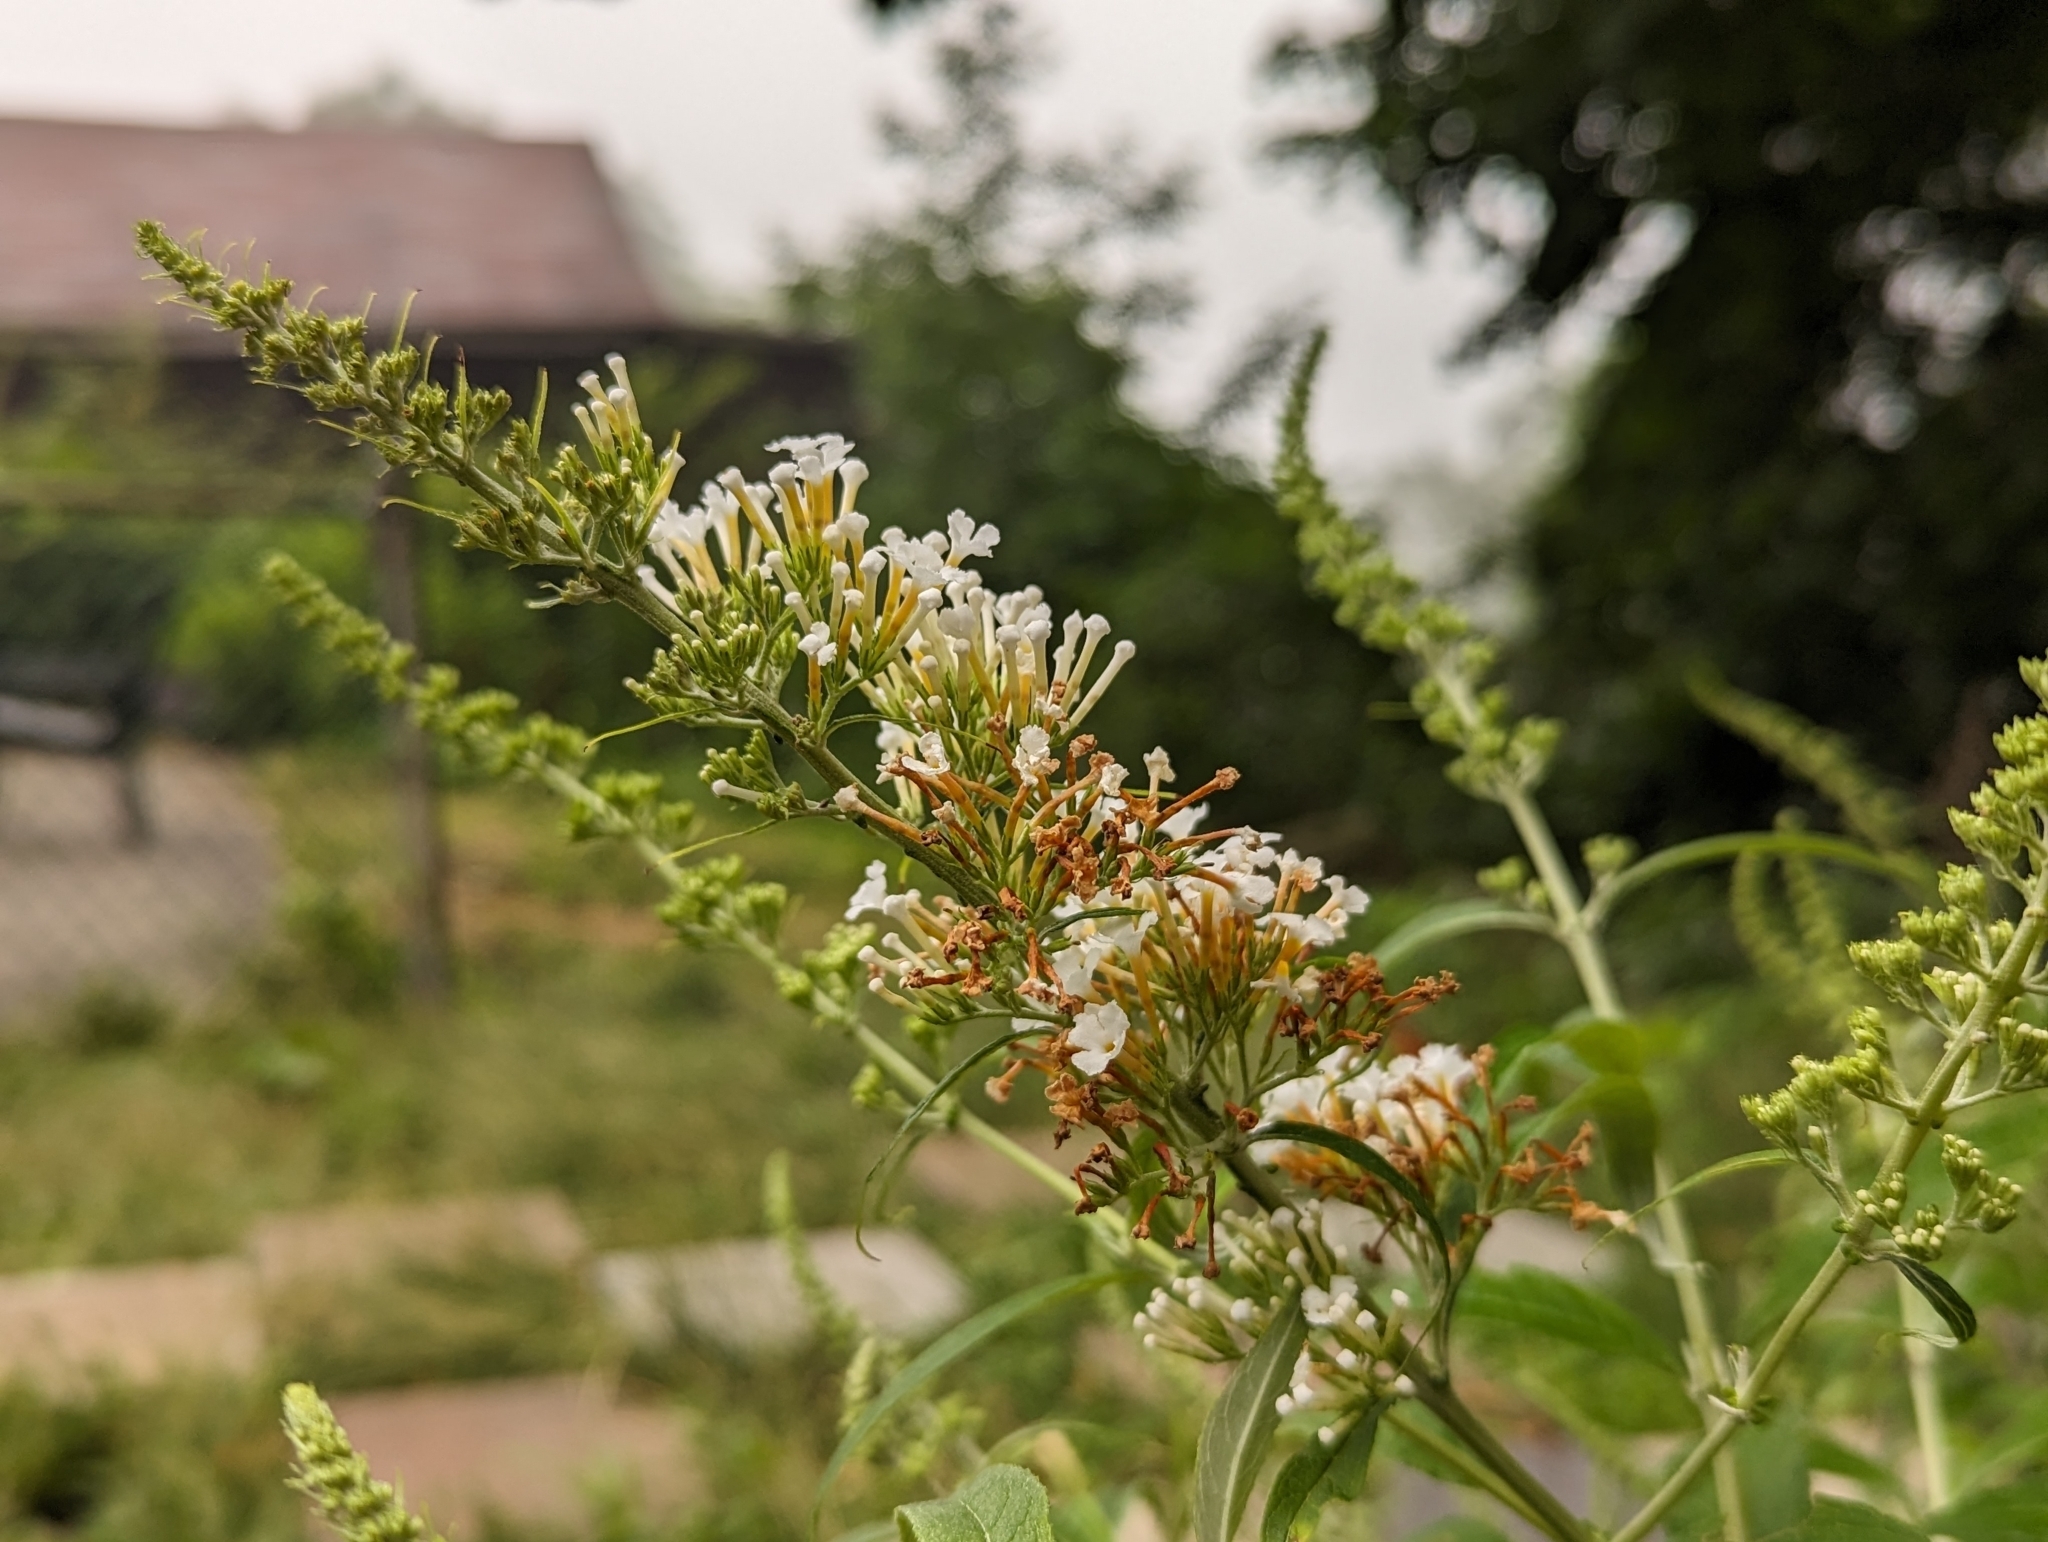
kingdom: Plantae
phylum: Tracheophyta
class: Magnoliopsida
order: Lamiales
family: Scrophulariaceae
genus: Buddleja
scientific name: Buddleja davidii
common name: Butterfly-bush
